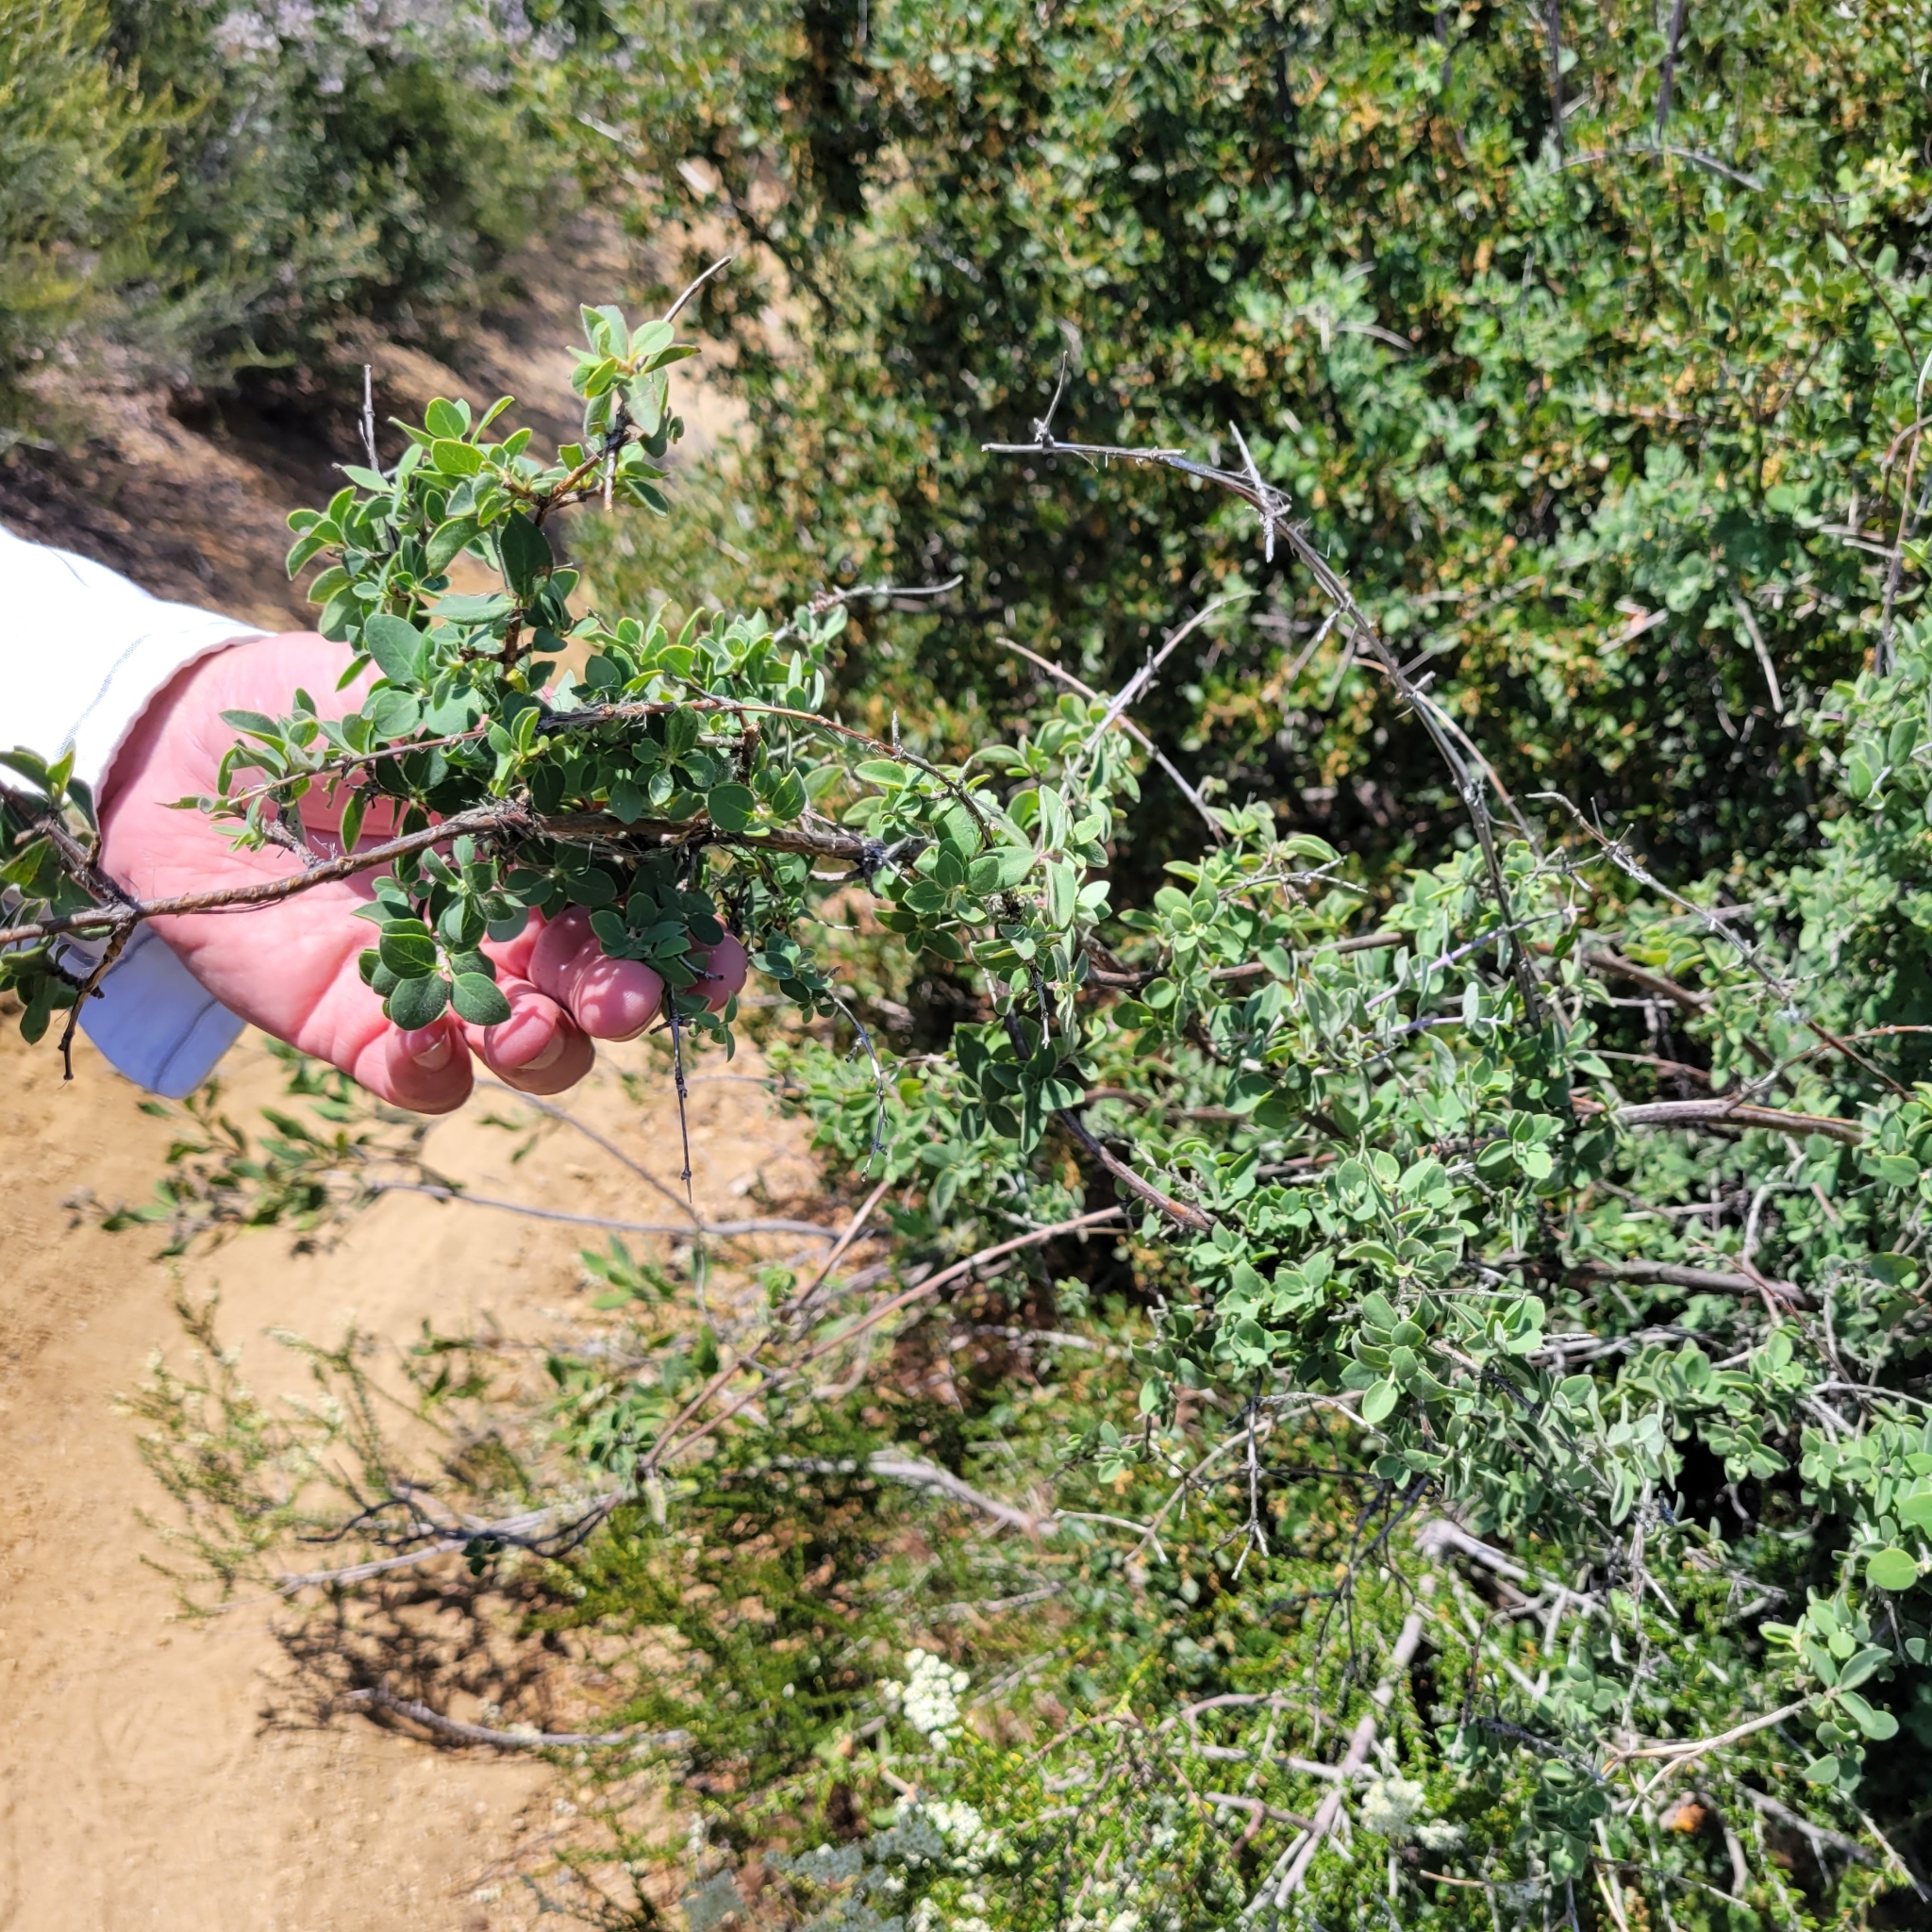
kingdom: Plantae
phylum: Tracheophyta
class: Magnoliopsida
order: Dipsacales
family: Caprifoliaceae
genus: Lonicera
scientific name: Lonicera interrupta
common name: Chaparral honeysuckle
